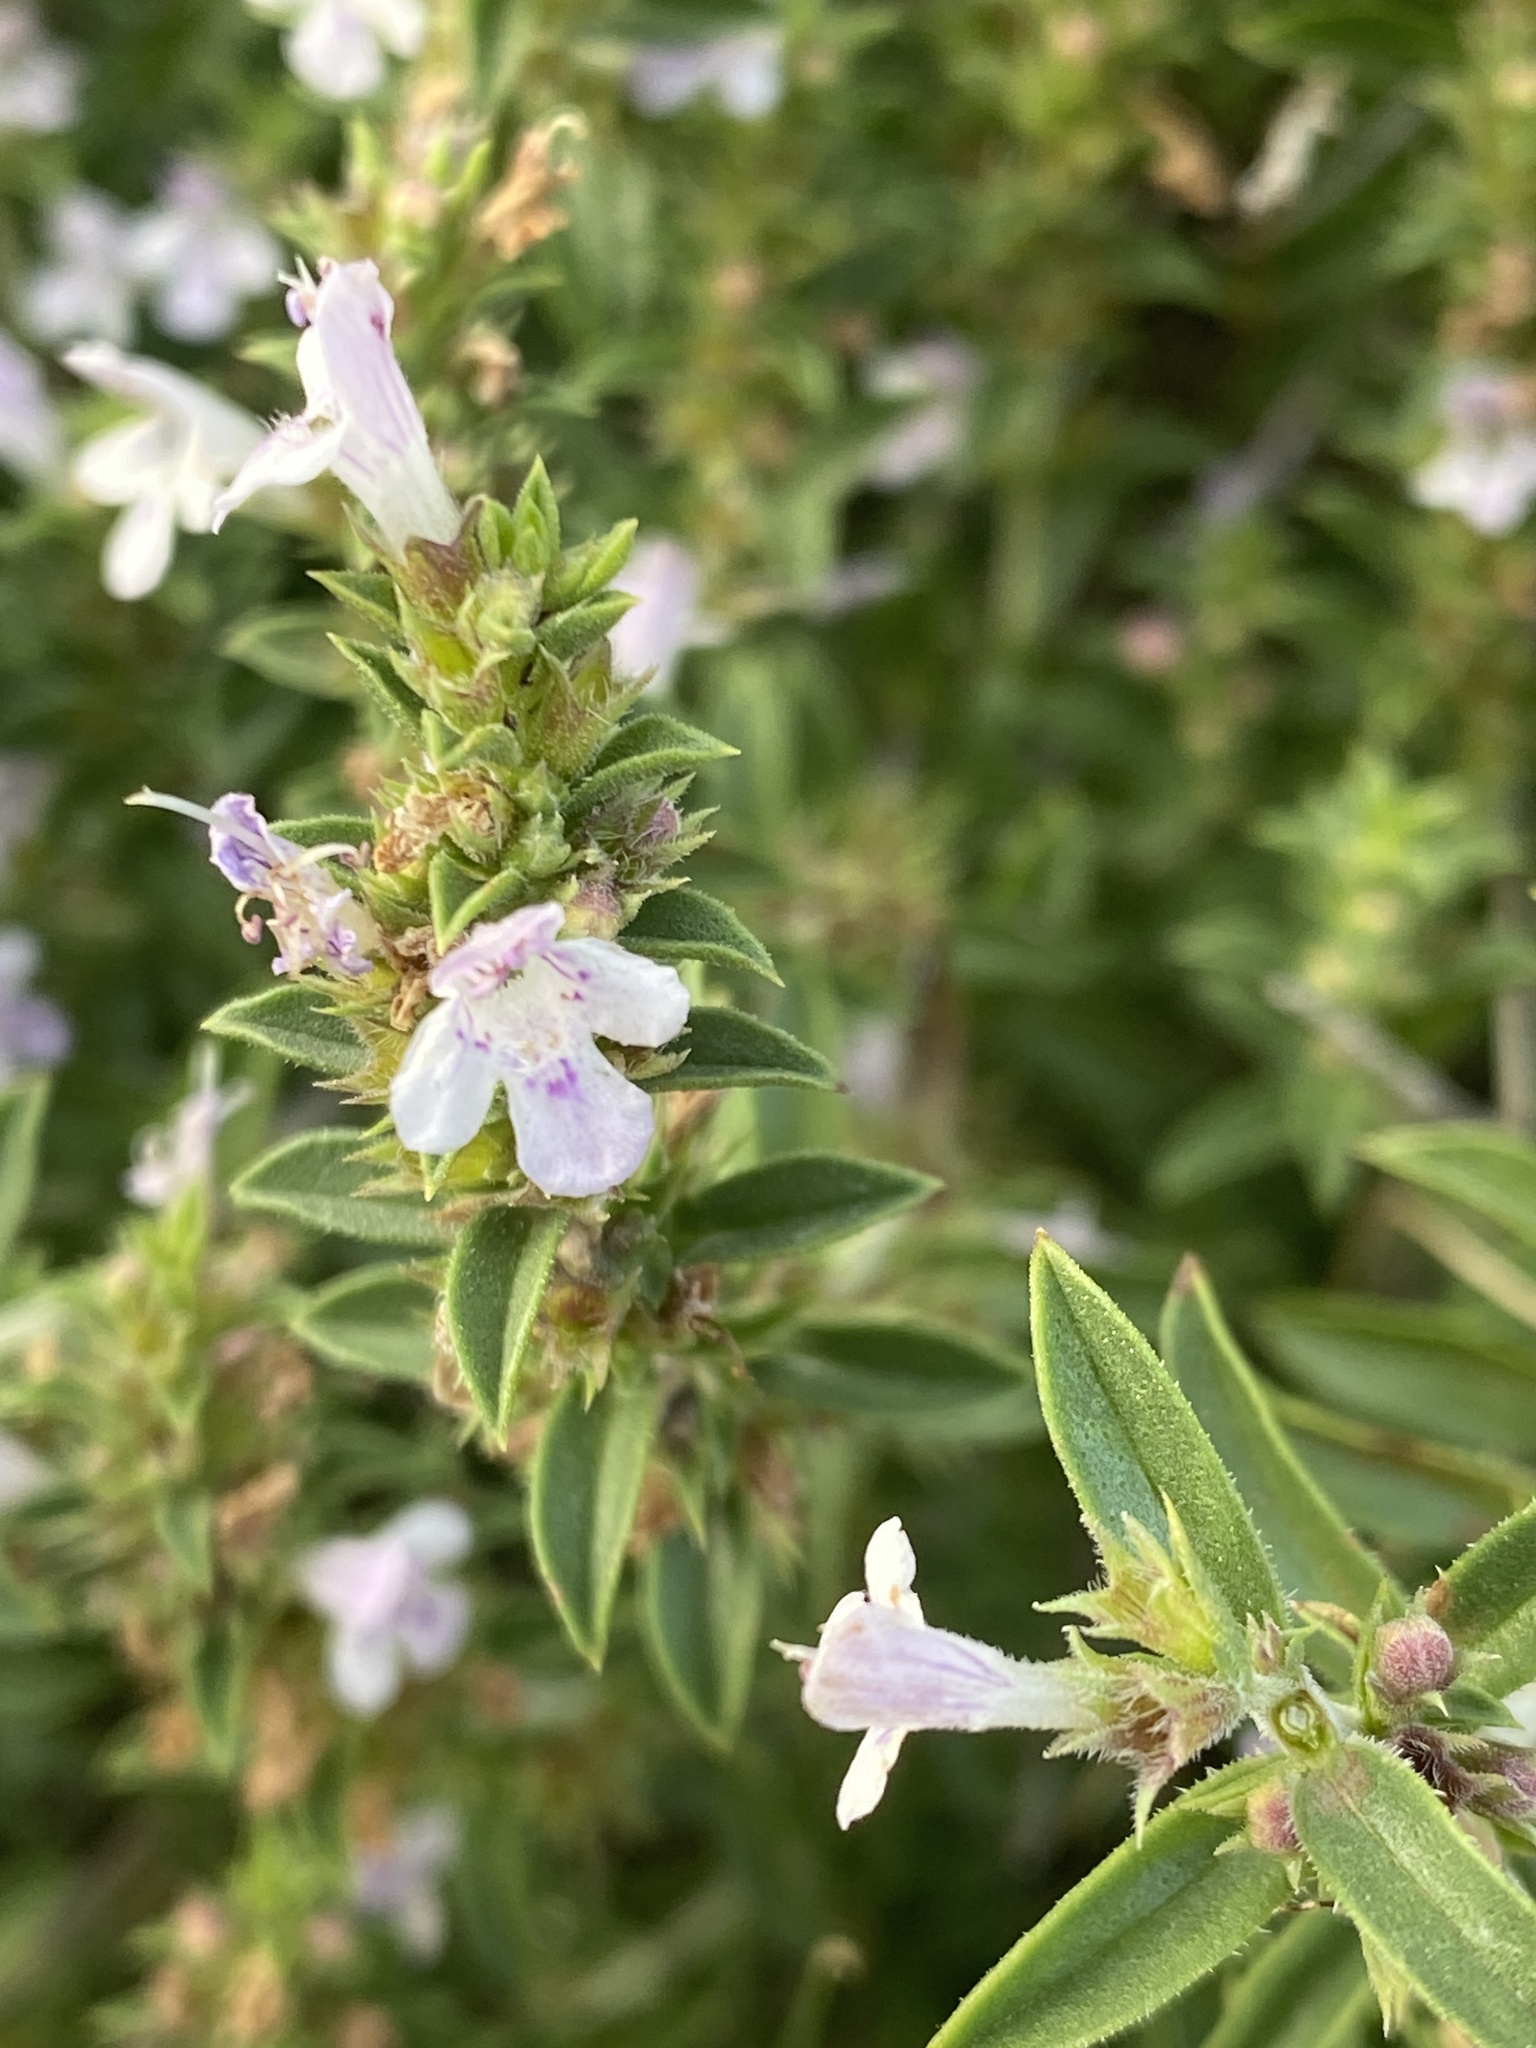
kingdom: Plantae
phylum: Tracheophyta
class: Magnoliopsida
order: Lamiales
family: Lamiaceae
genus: Satureja
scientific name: Satureja montana
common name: Winter savory
